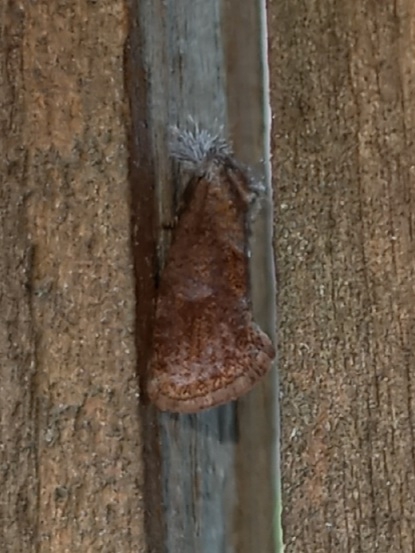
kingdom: Animalia
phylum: Arthropoda
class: Insecta
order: Lepidoptera
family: Tineidae
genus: Acrolophus
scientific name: Acrolophus panamae
